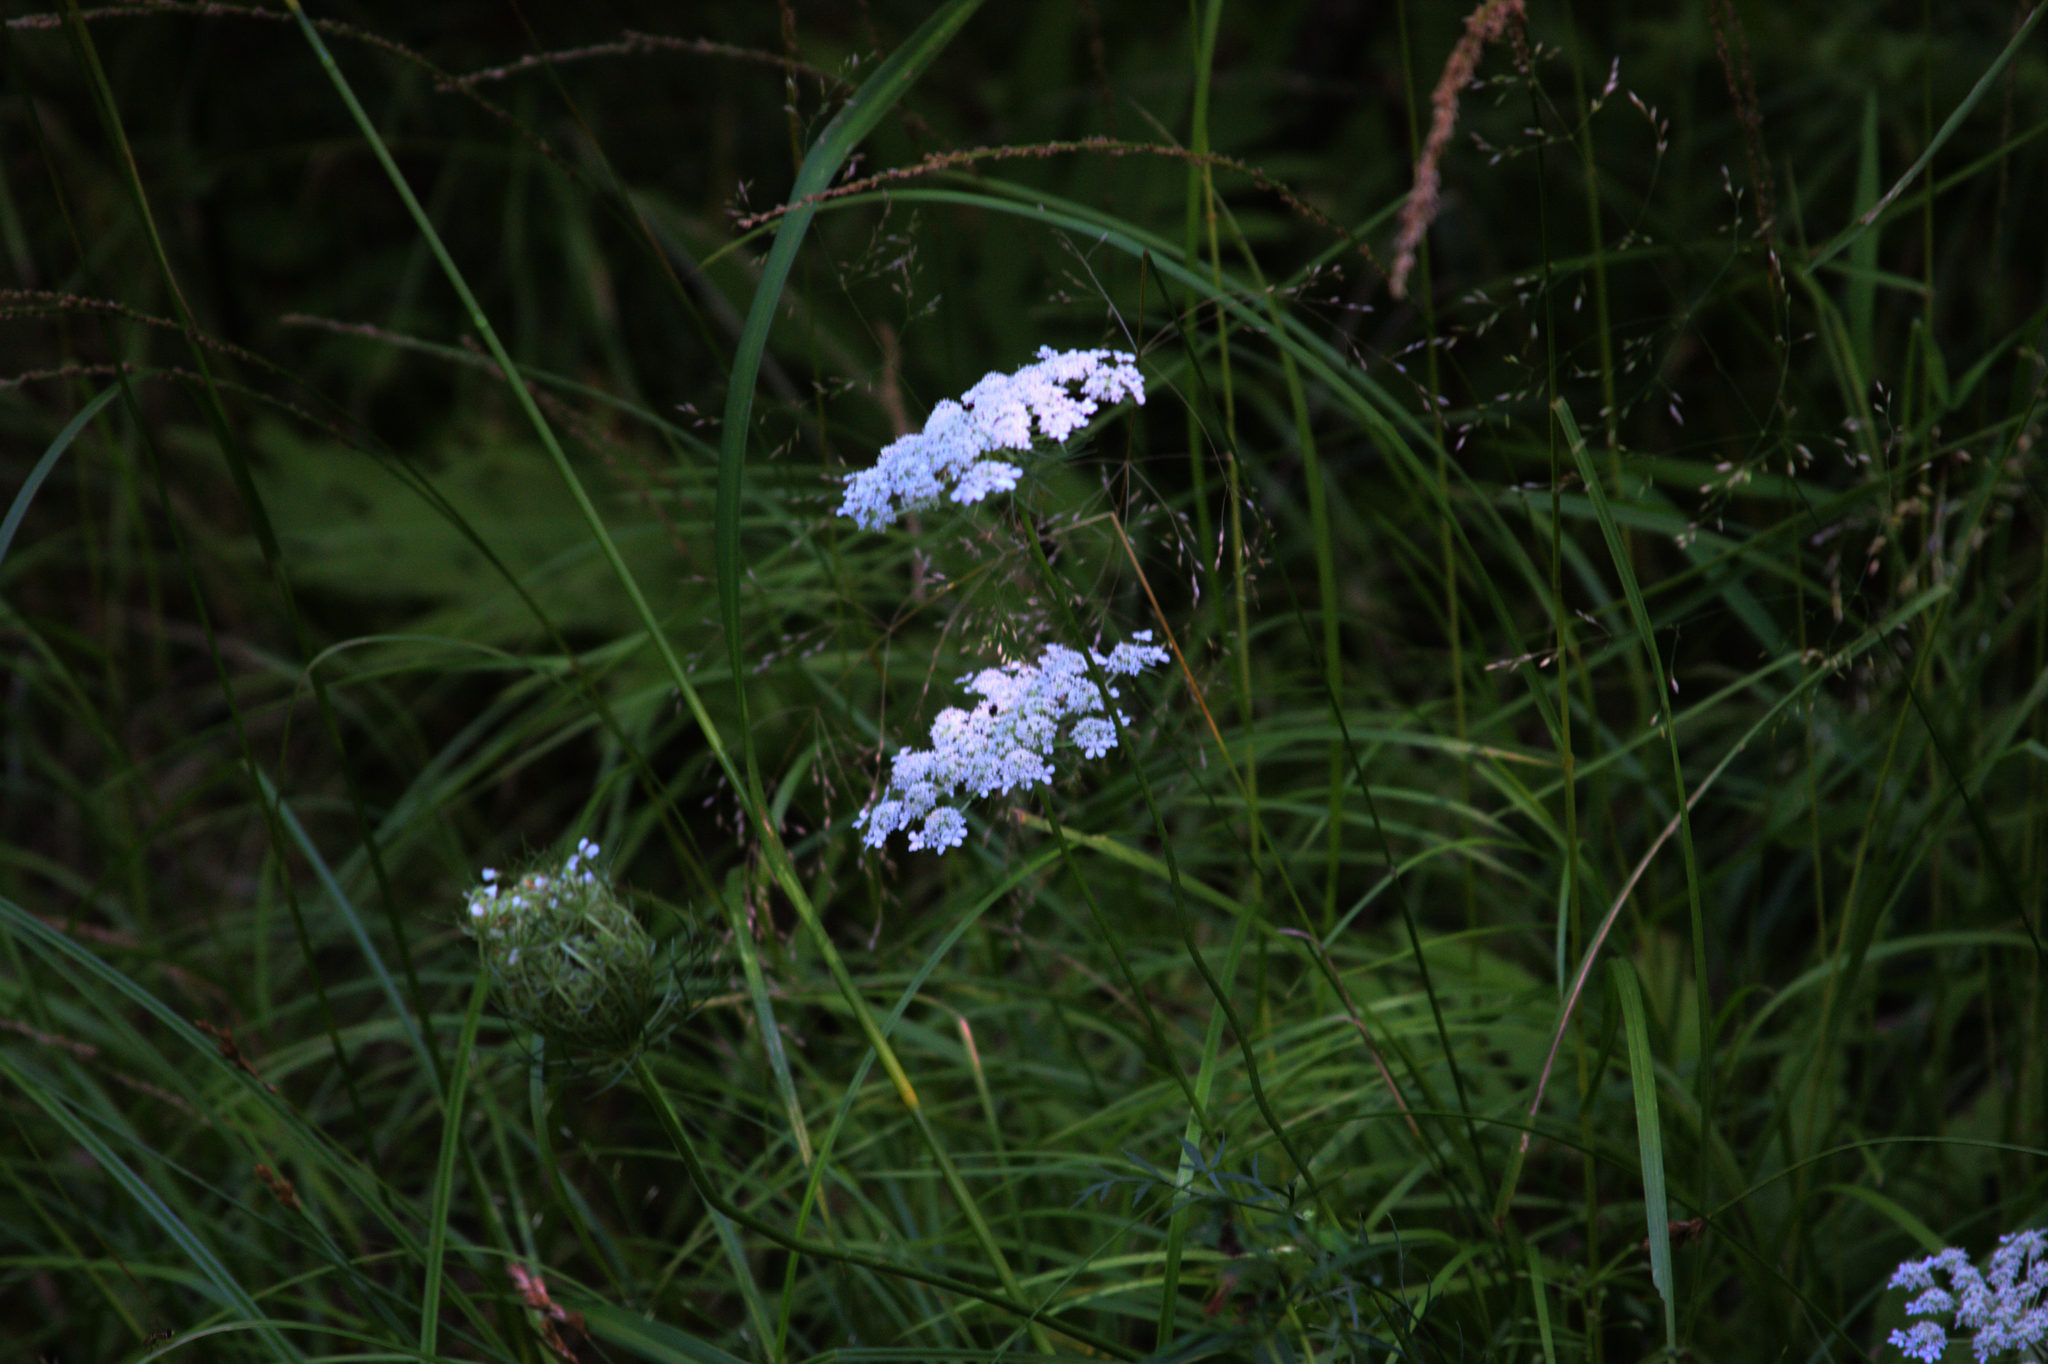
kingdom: Plantae
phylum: Tracheophyta
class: Magnoliopsida
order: Apiales
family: Apiaceae
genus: Daucus
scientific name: Daucus carota
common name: Wild carrot
